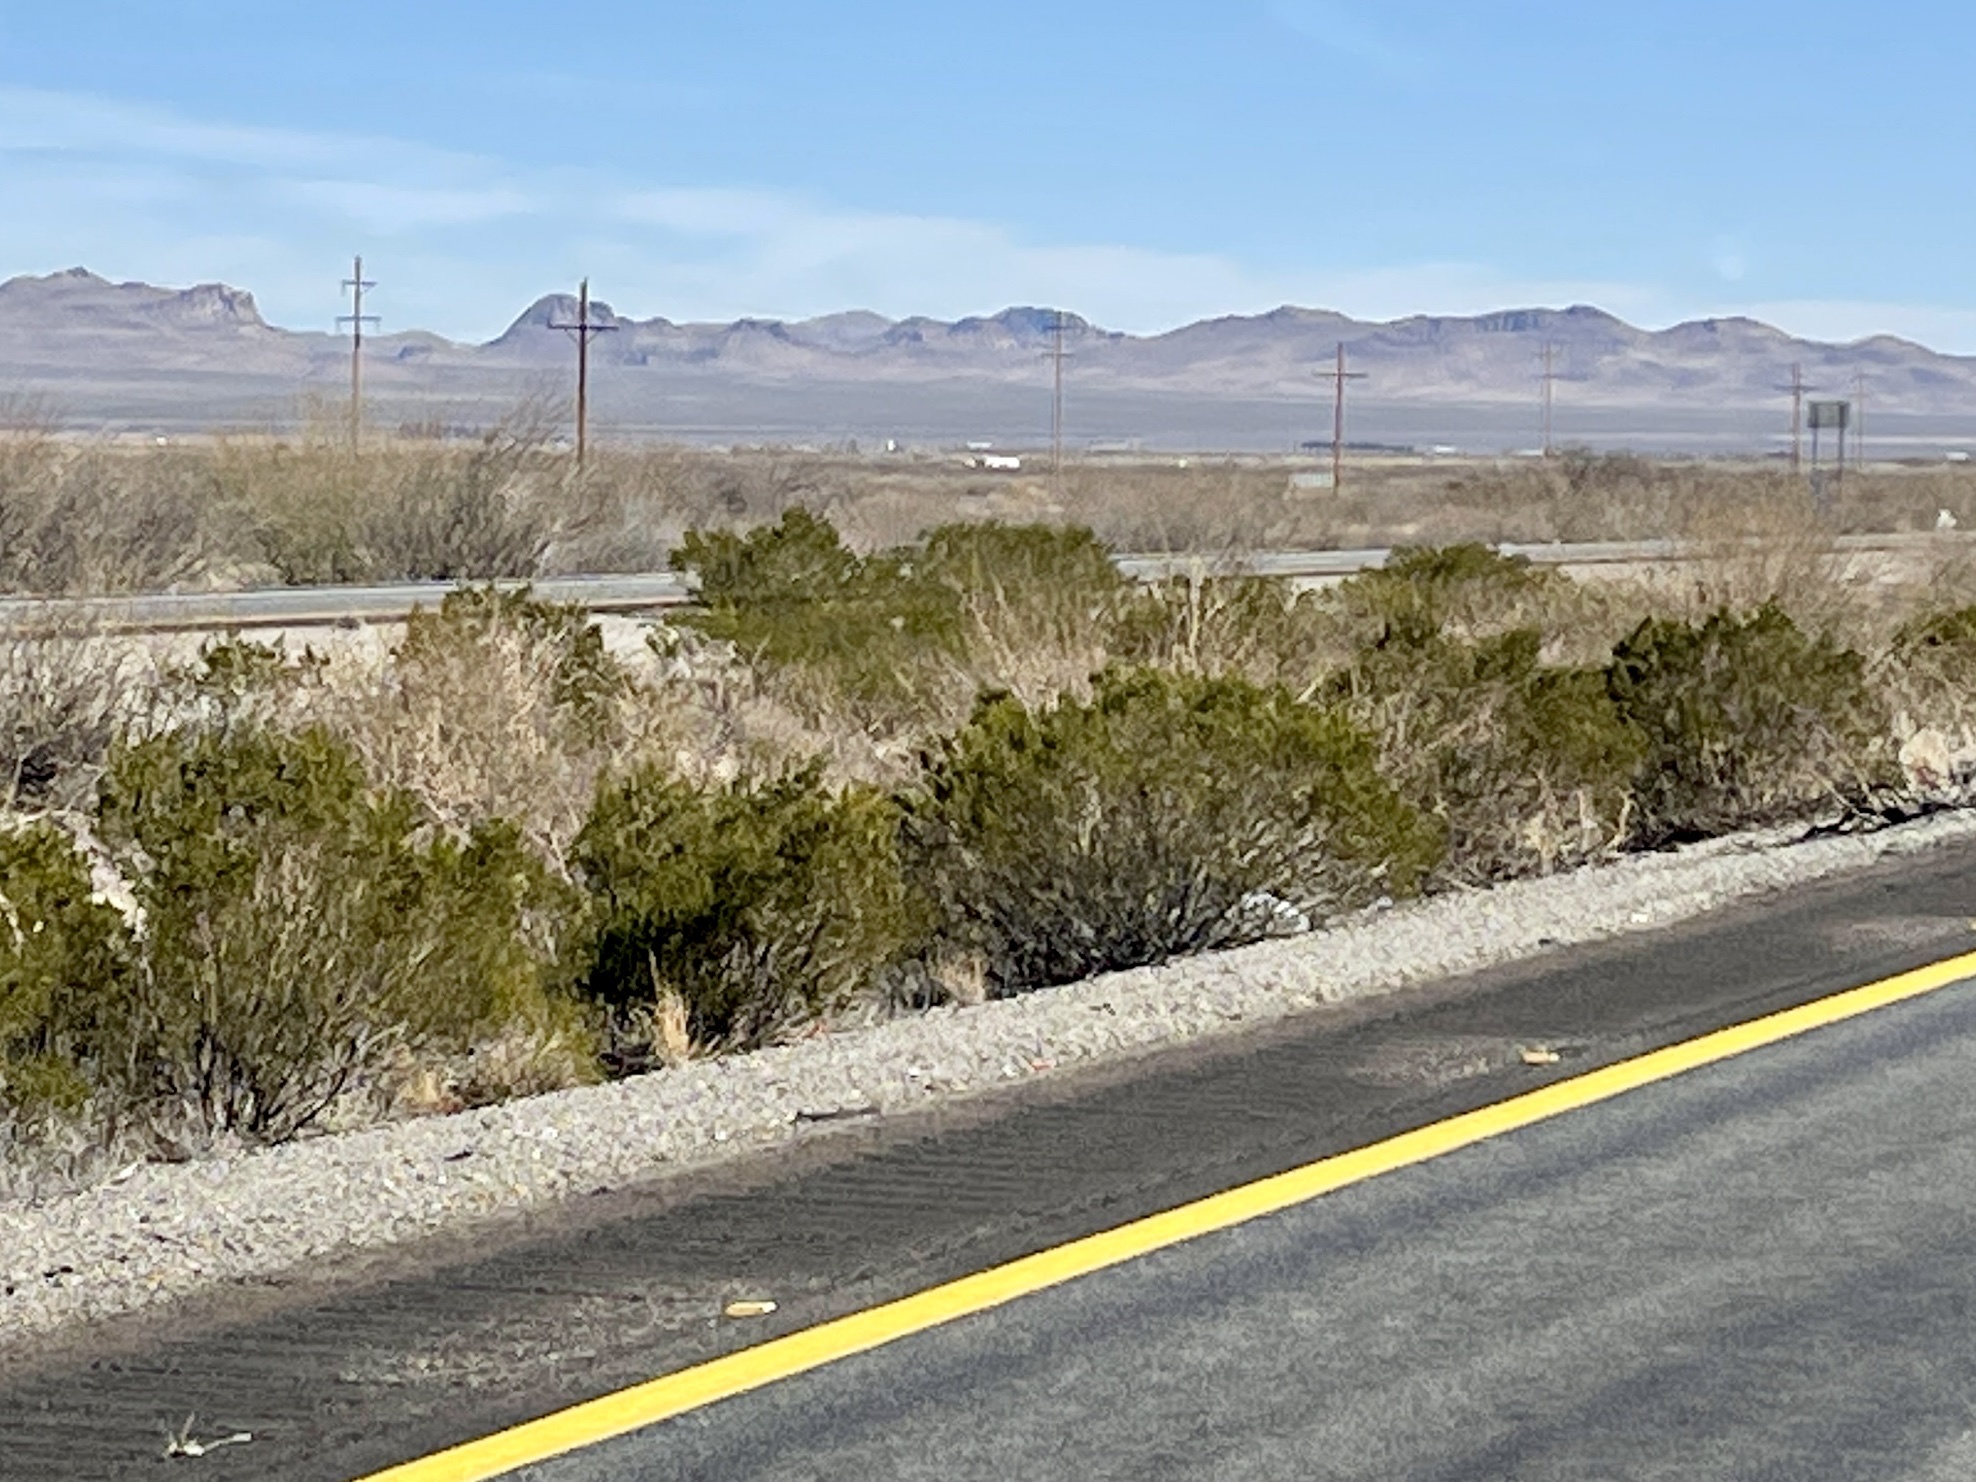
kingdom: Plantae
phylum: Tracheophyta
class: Magnoliopsida
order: Zygophyllales
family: Zygophyllaceae
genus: Larrea
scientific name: Larrea tridentata
